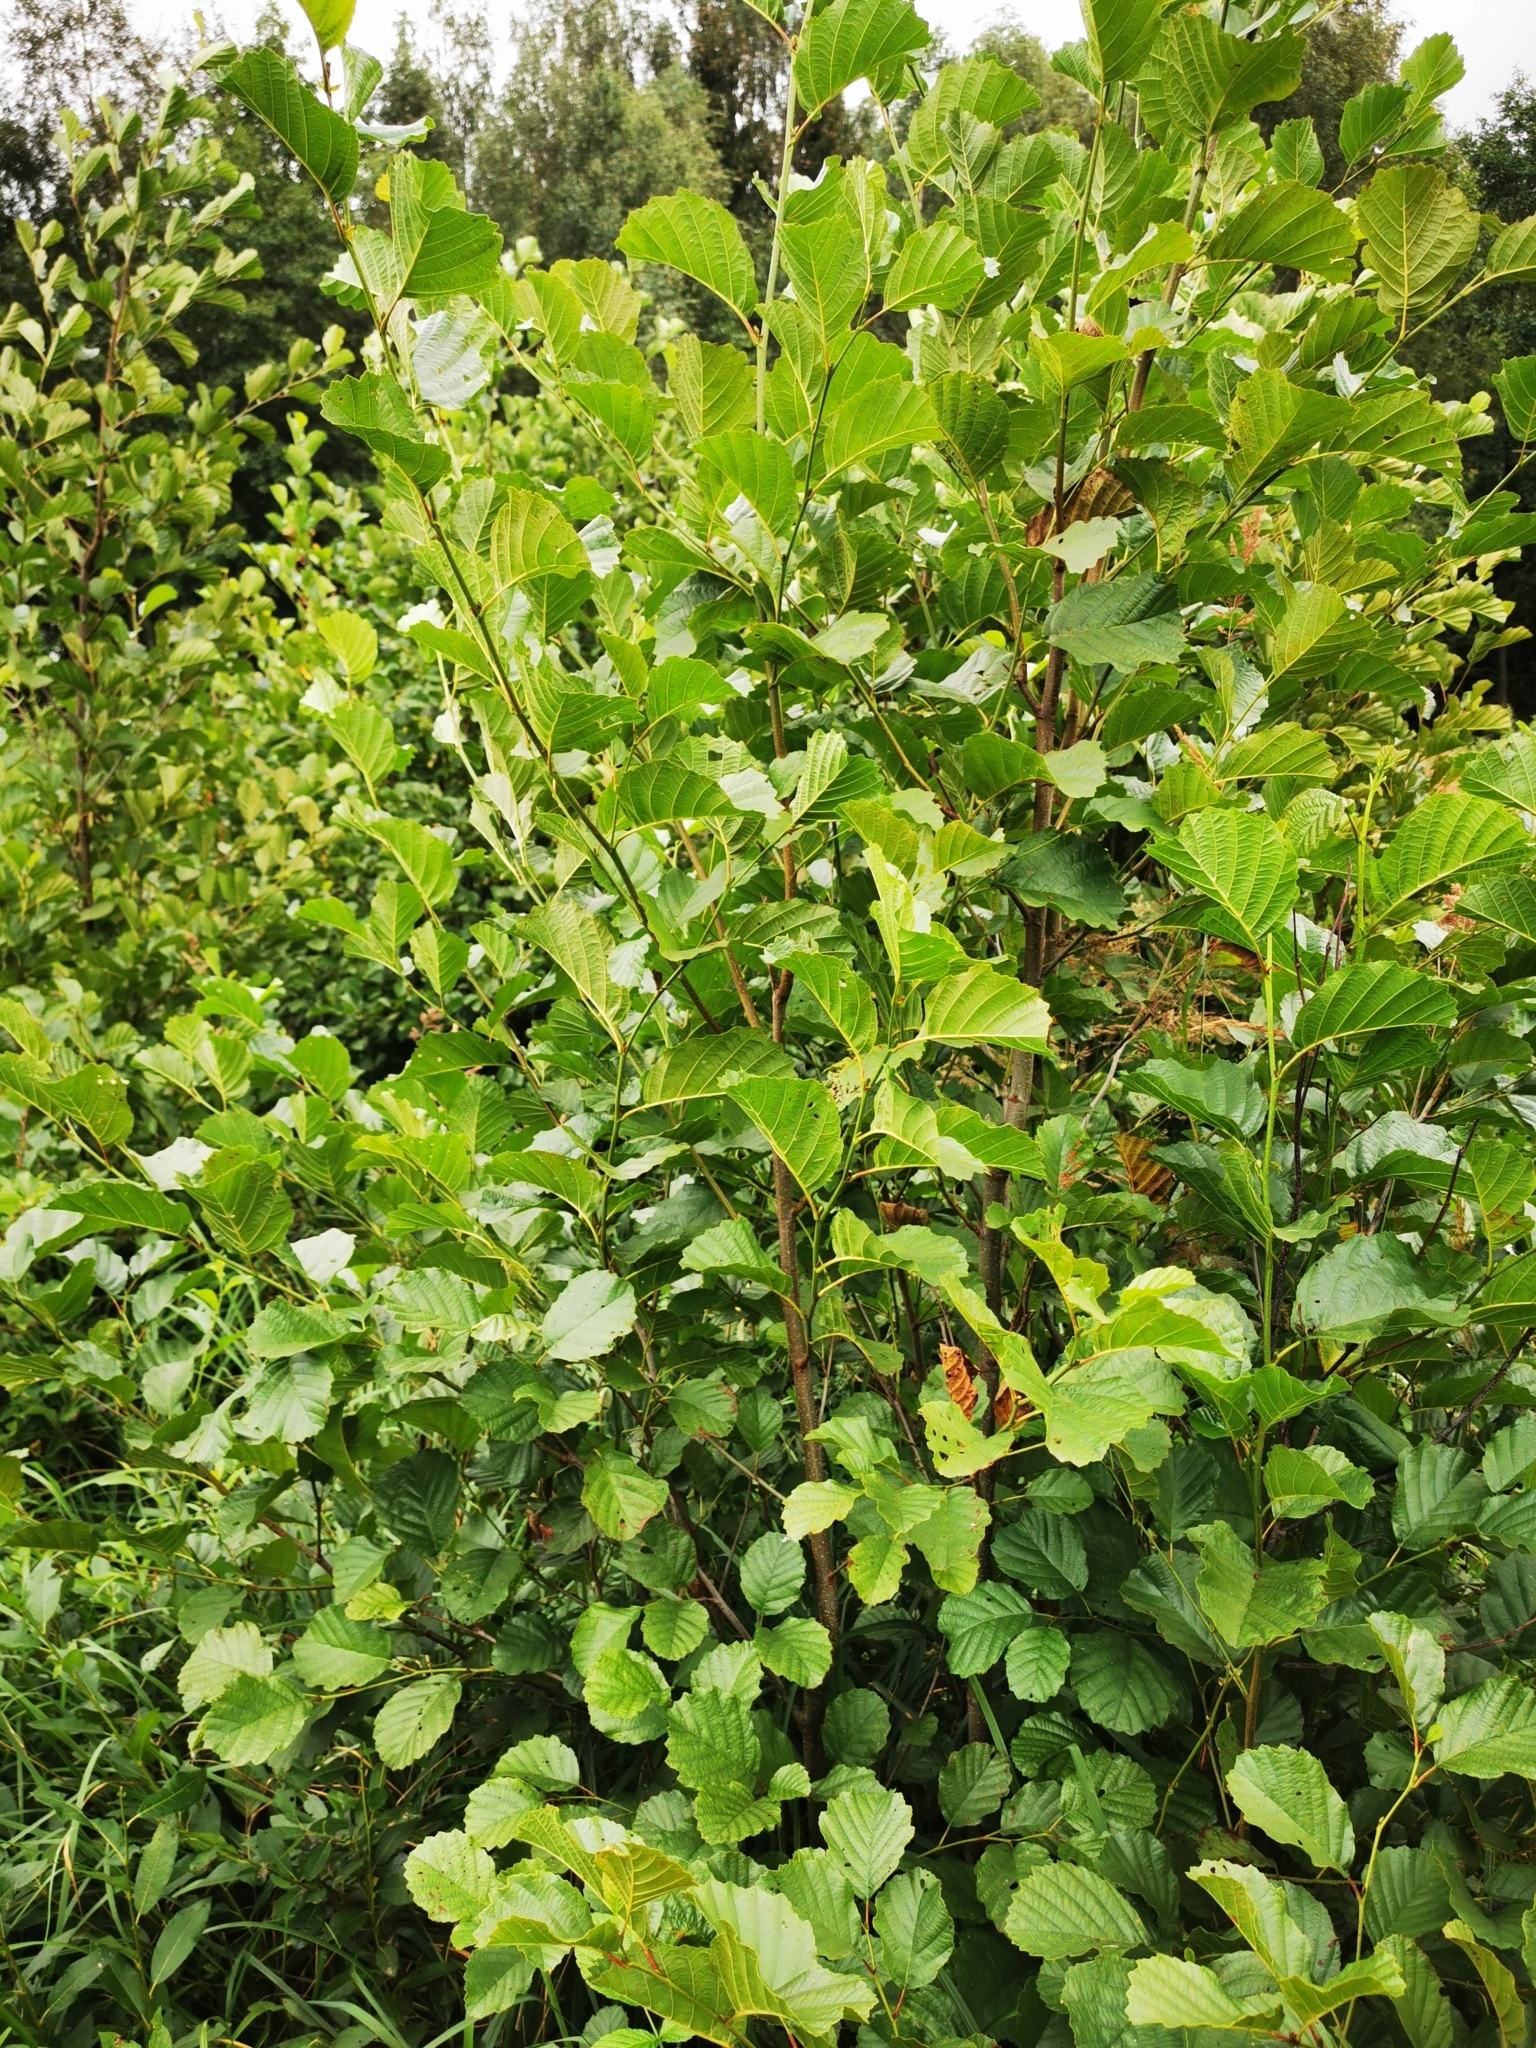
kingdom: Plantae
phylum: Tracheophyta
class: Magnoliopsida
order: Fagales
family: Betulaceae
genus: Alnus
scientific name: Alnus glutinosa
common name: Black alder
